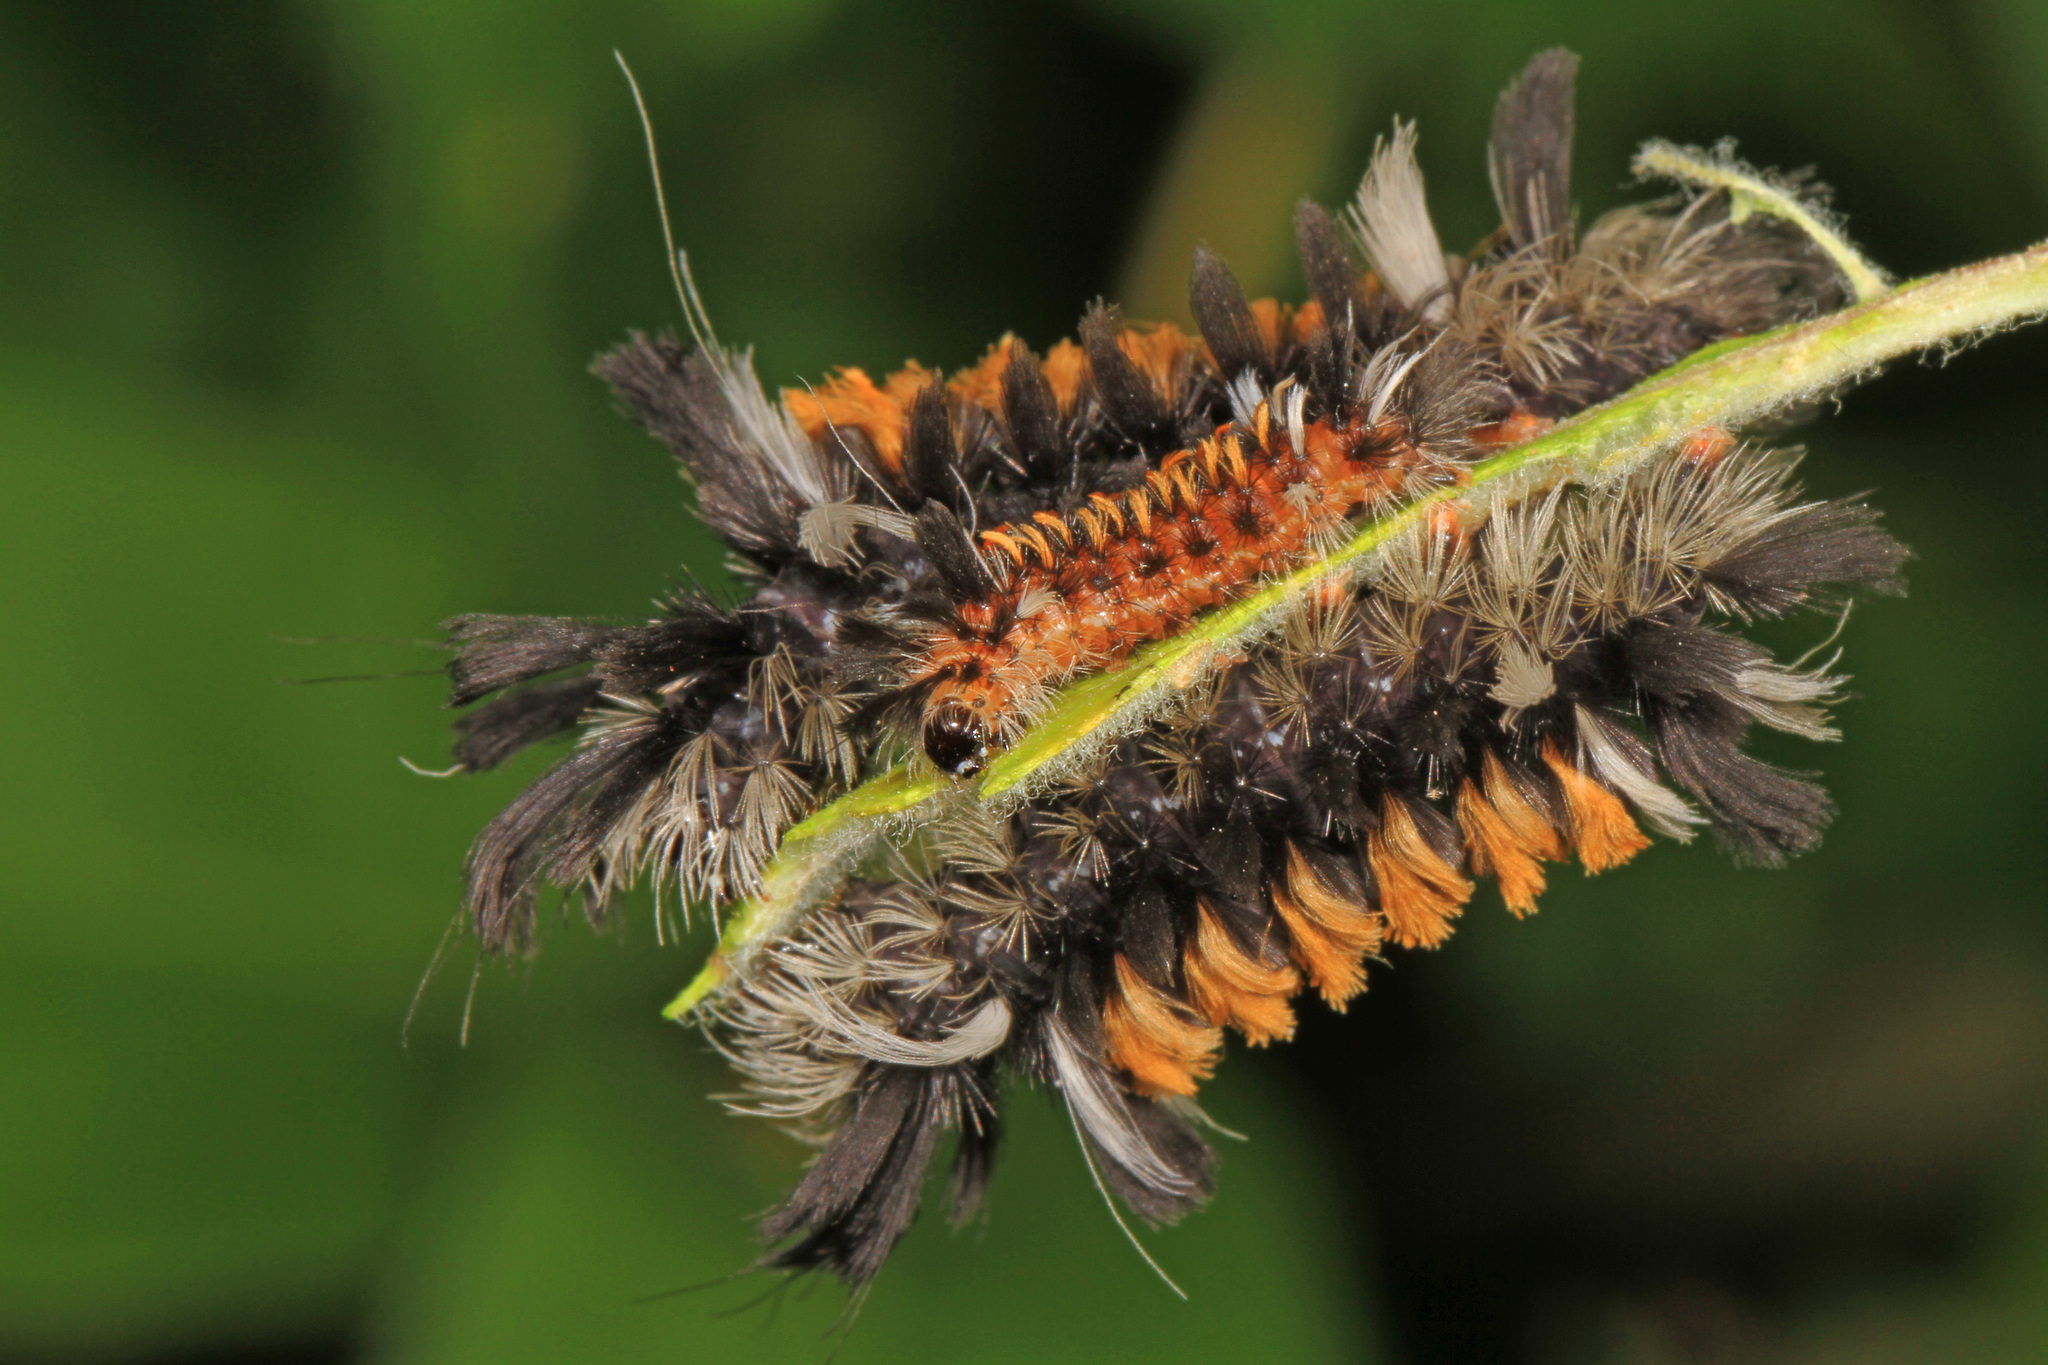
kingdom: Animalia
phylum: Arthropoda
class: Insecta
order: Lepidoptera
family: Erebidae
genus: Euchaetes
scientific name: Euchaetes egle
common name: Milkweed tussock moth
